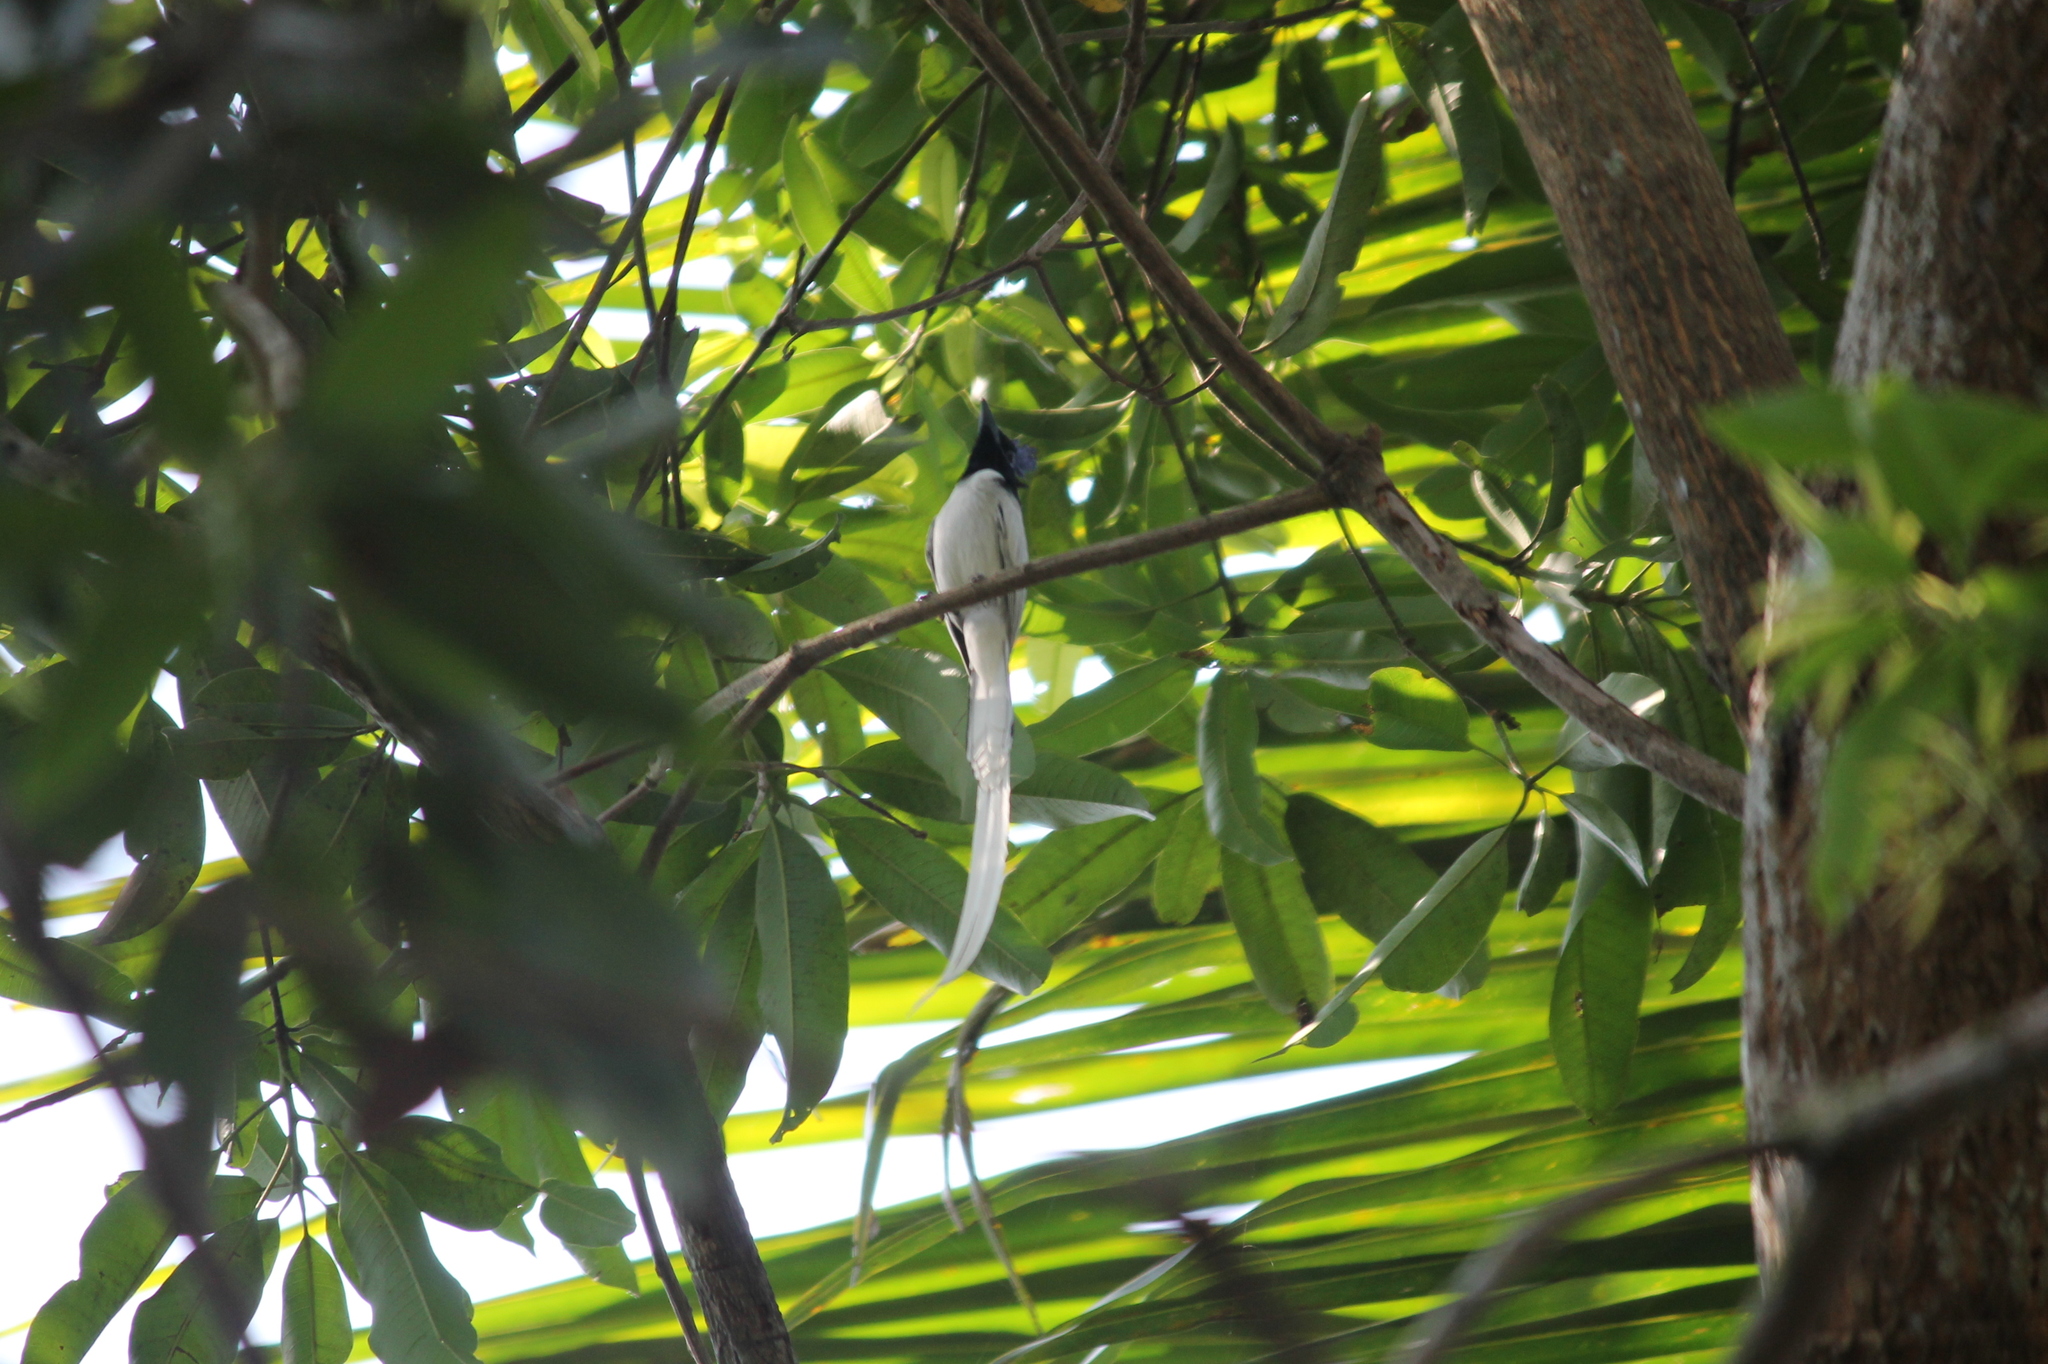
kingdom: Animalia
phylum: Chordata
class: Aves
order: Passeriformes
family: Monarchidae
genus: Terpsiphone
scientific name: Terpsiphone paradisi
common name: Indian paradise flycatcher
